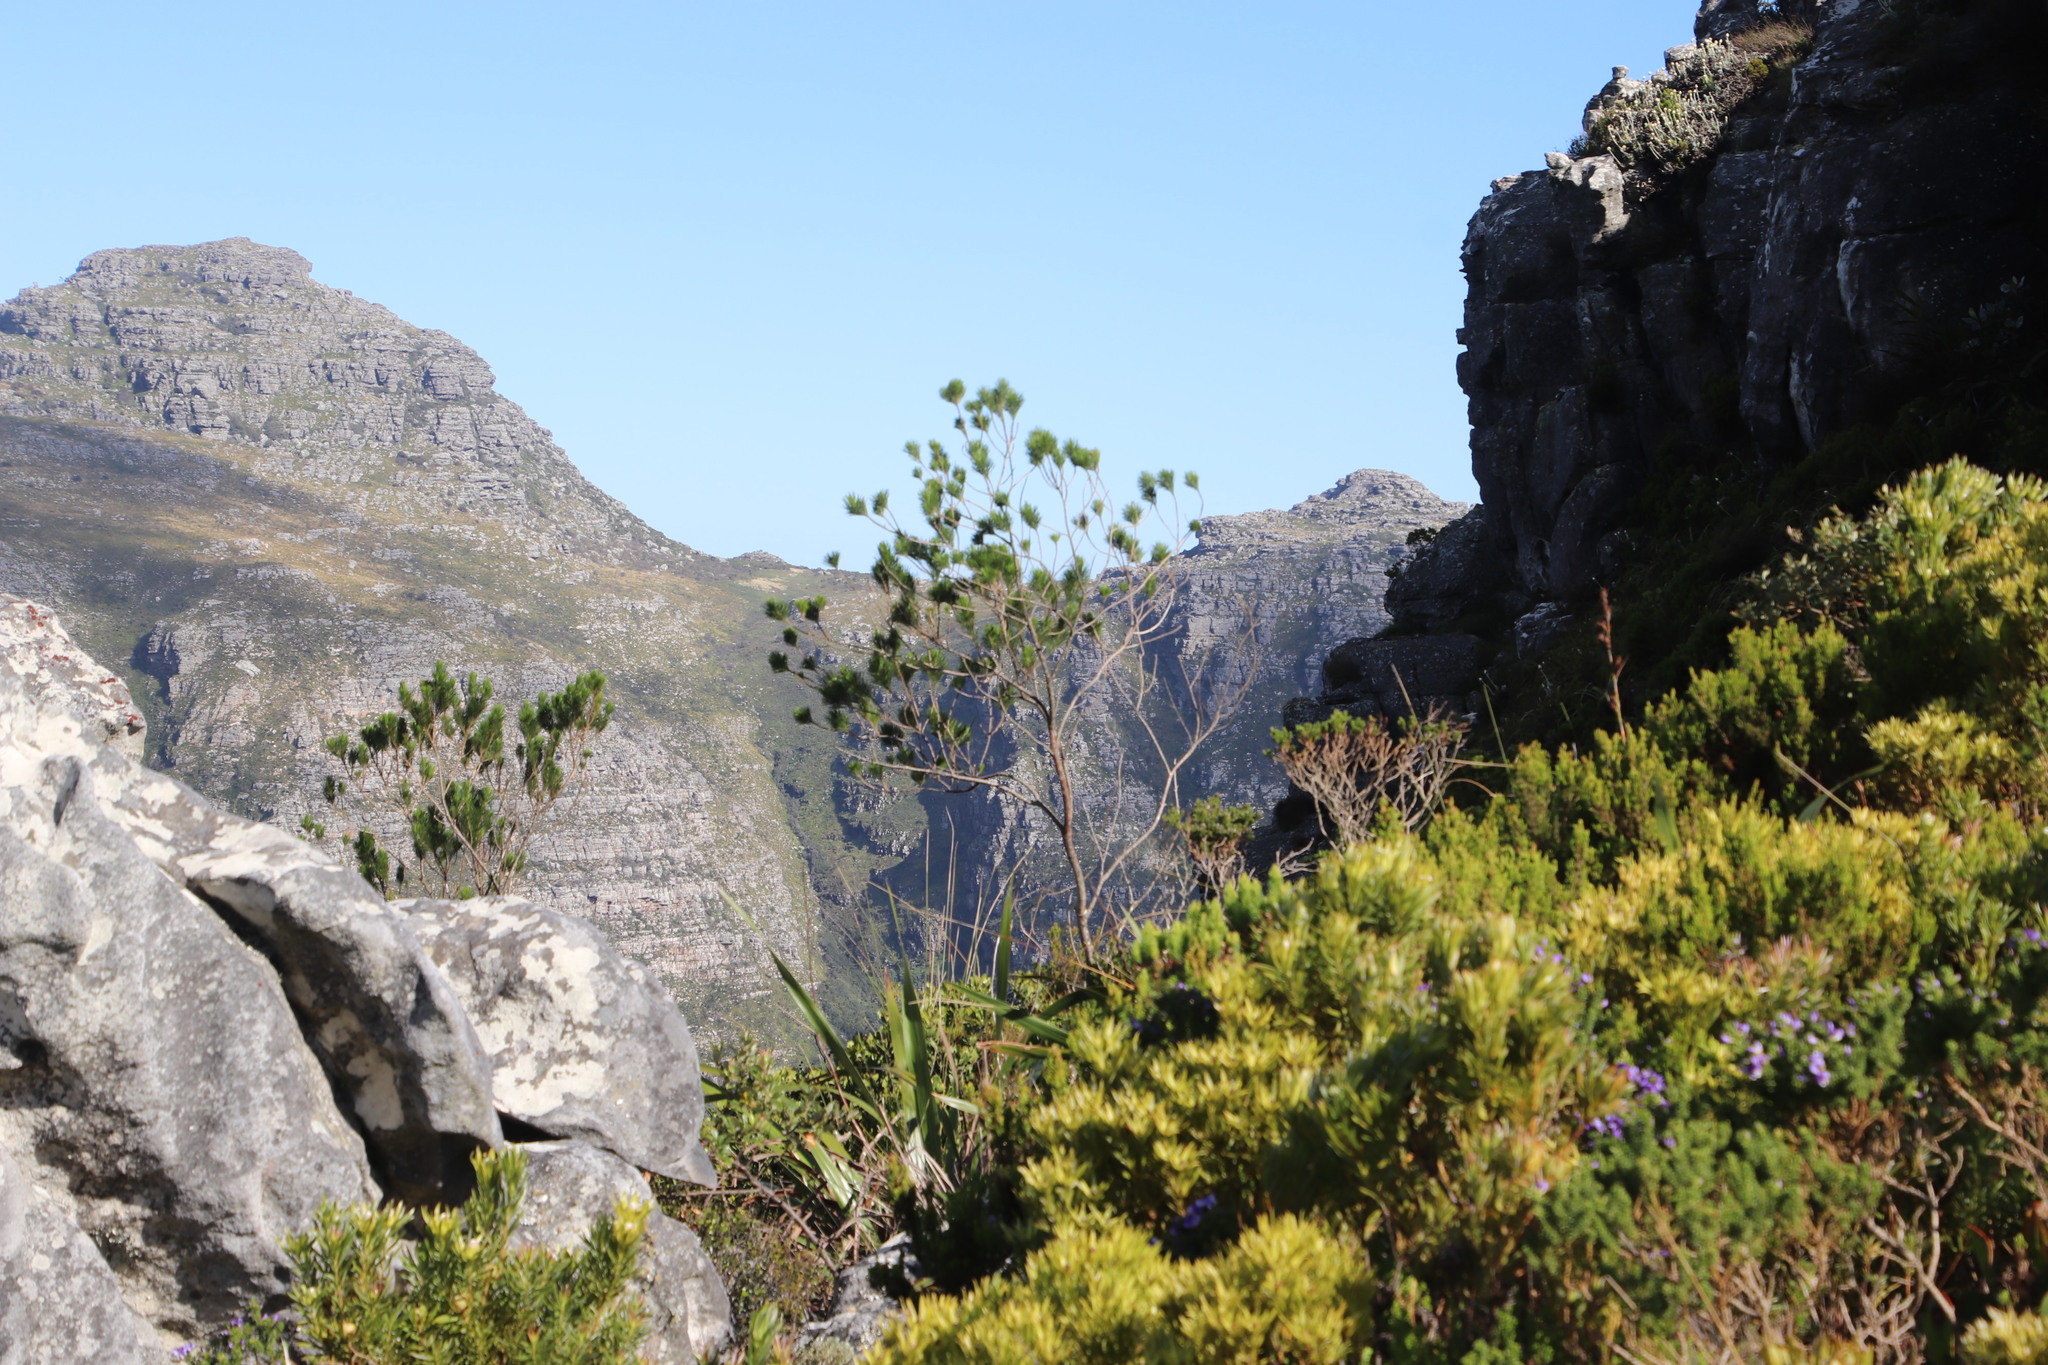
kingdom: Plantae
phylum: Tracheophyta
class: Magnoliopsida
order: Fabales
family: Fabaceae
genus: Psoralea
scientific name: Psoralea pinnata
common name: African scurfpea
